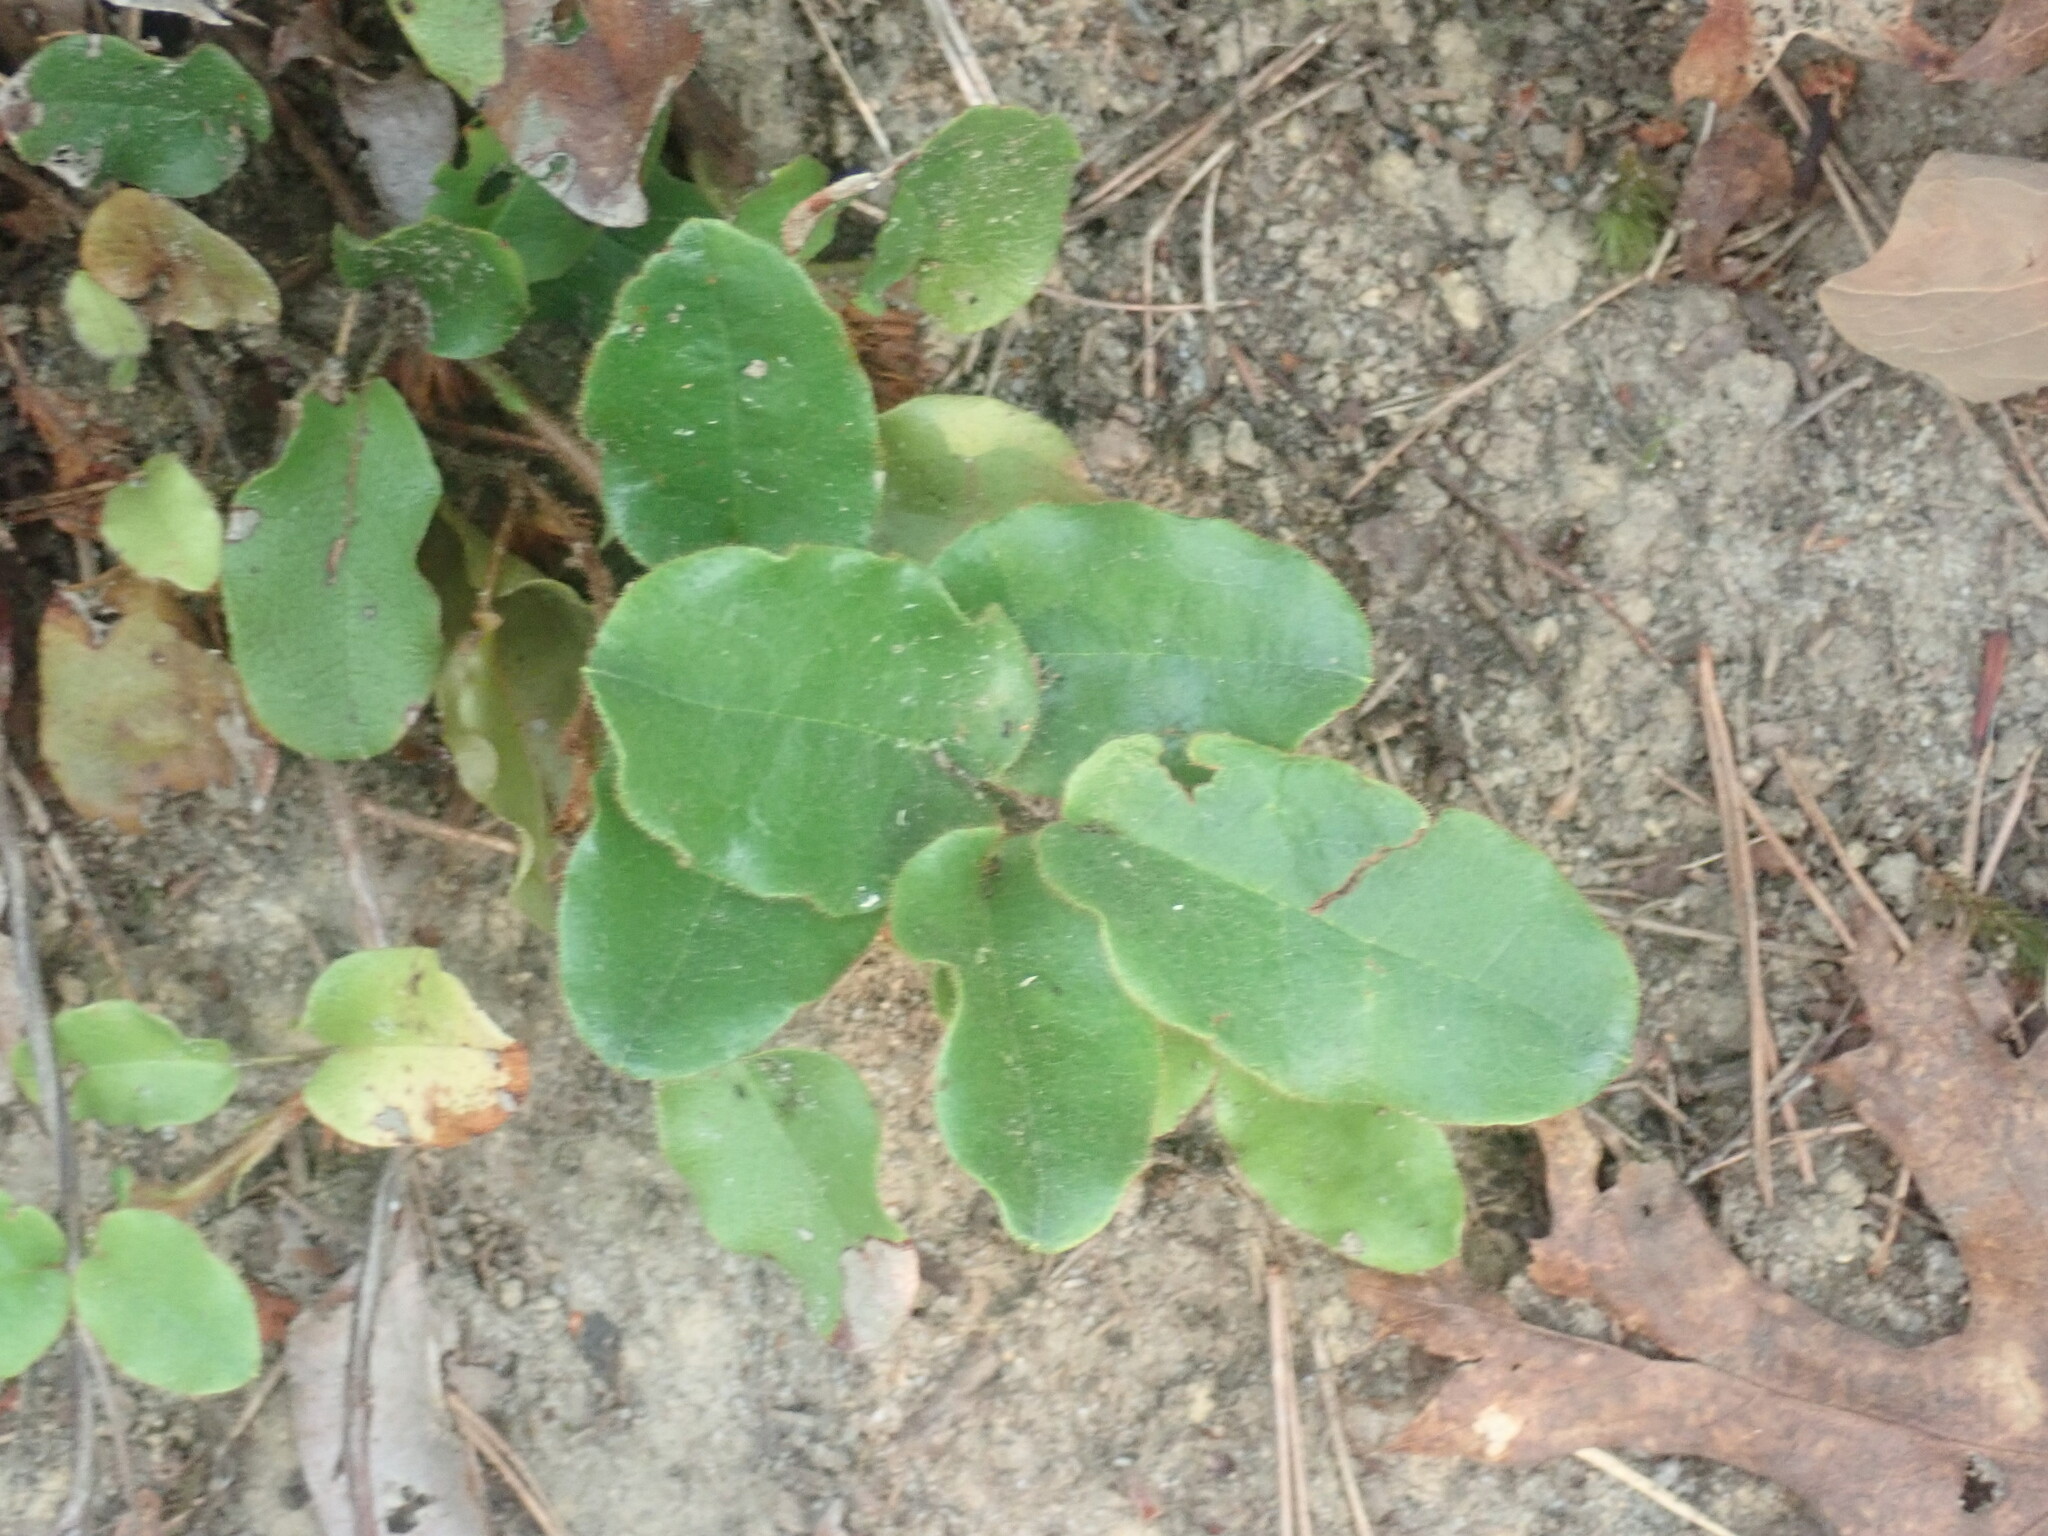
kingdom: Plantae
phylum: Tracheophyta
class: Magnoliopsida
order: Ericales
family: Ericaceae
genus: Epigaea
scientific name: Epigaea repens
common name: Gravelroot
